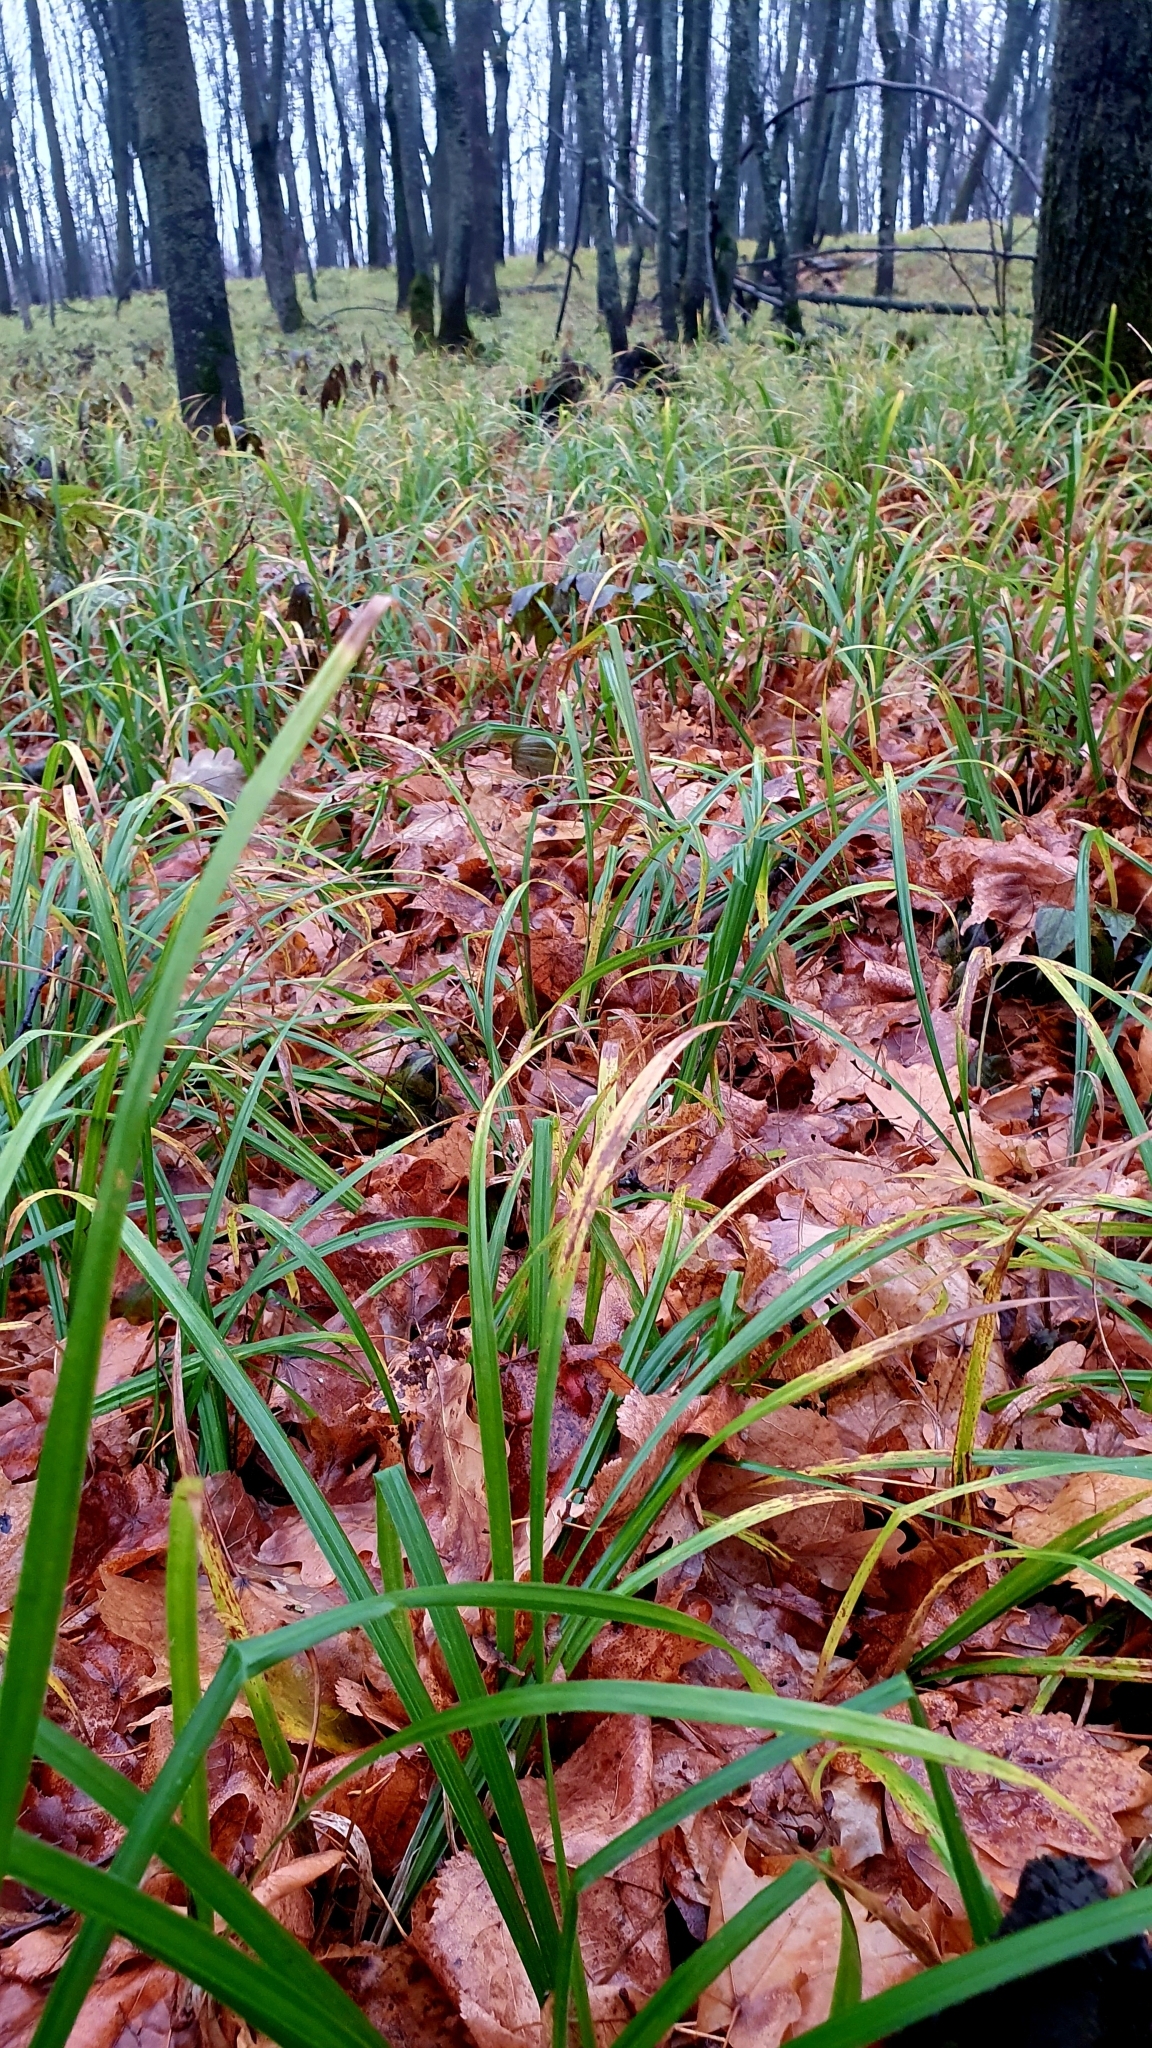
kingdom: Plantae
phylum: Tracheophyta
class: Liliopsida
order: Poales
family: Cyperaceae
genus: Carex
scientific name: Carex pilosa
